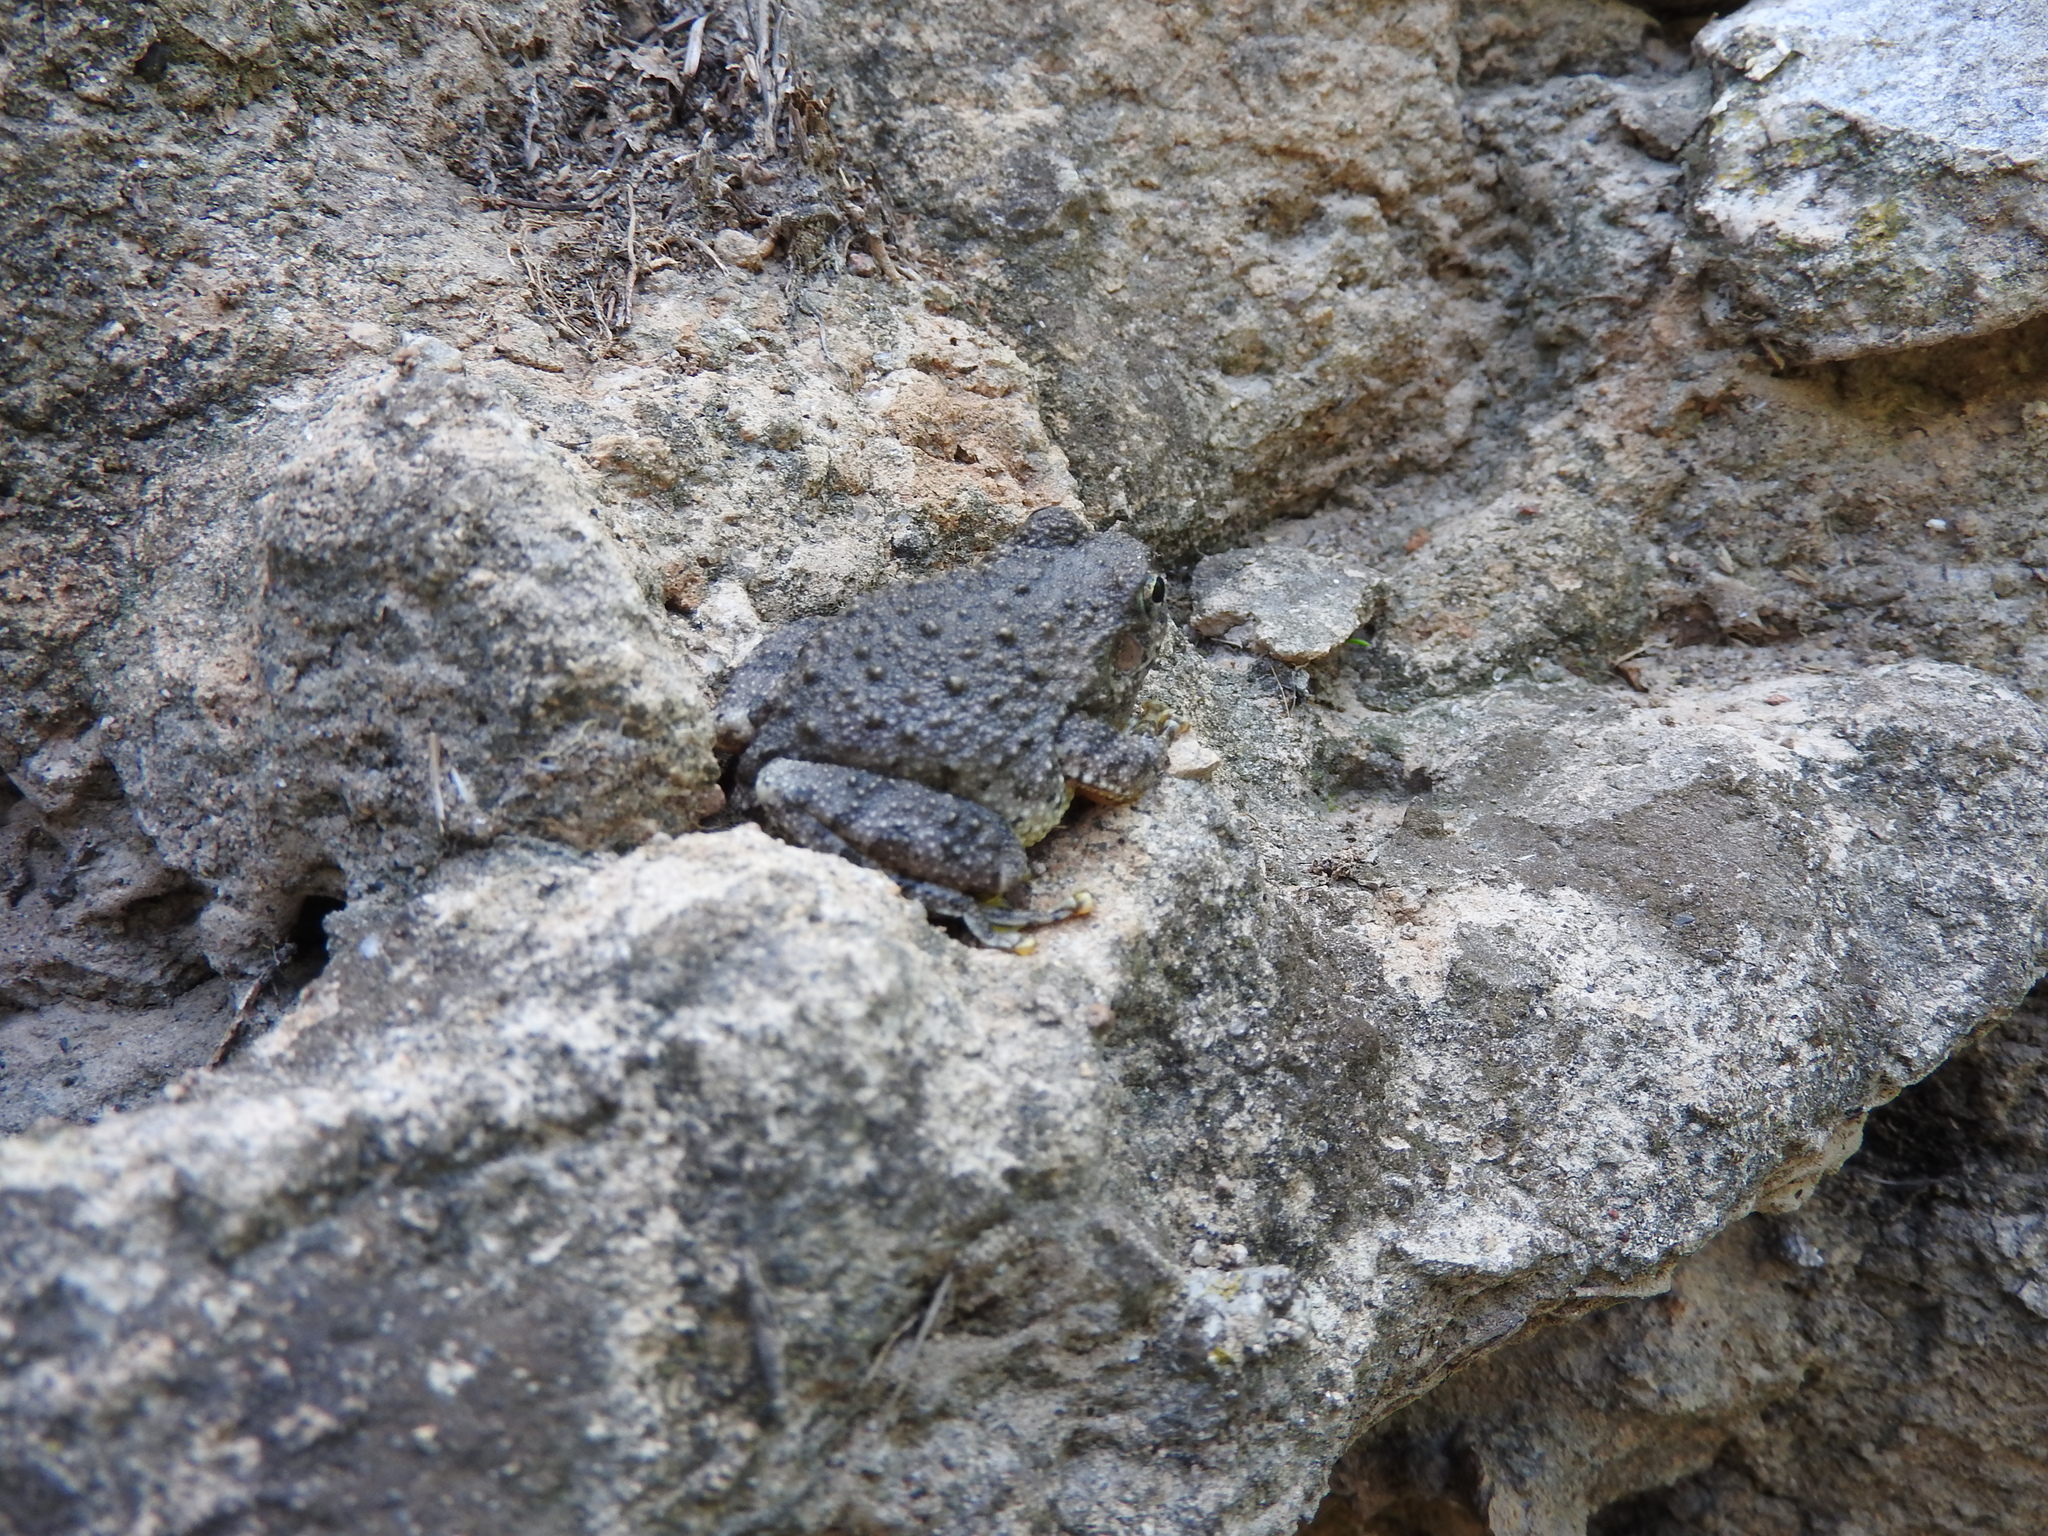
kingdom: Animalia
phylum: Chordata
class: Amphibia
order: Anura
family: Hylidae
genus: Dryophytes
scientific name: Dryophytes arenicolor
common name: Canyon treefrog
